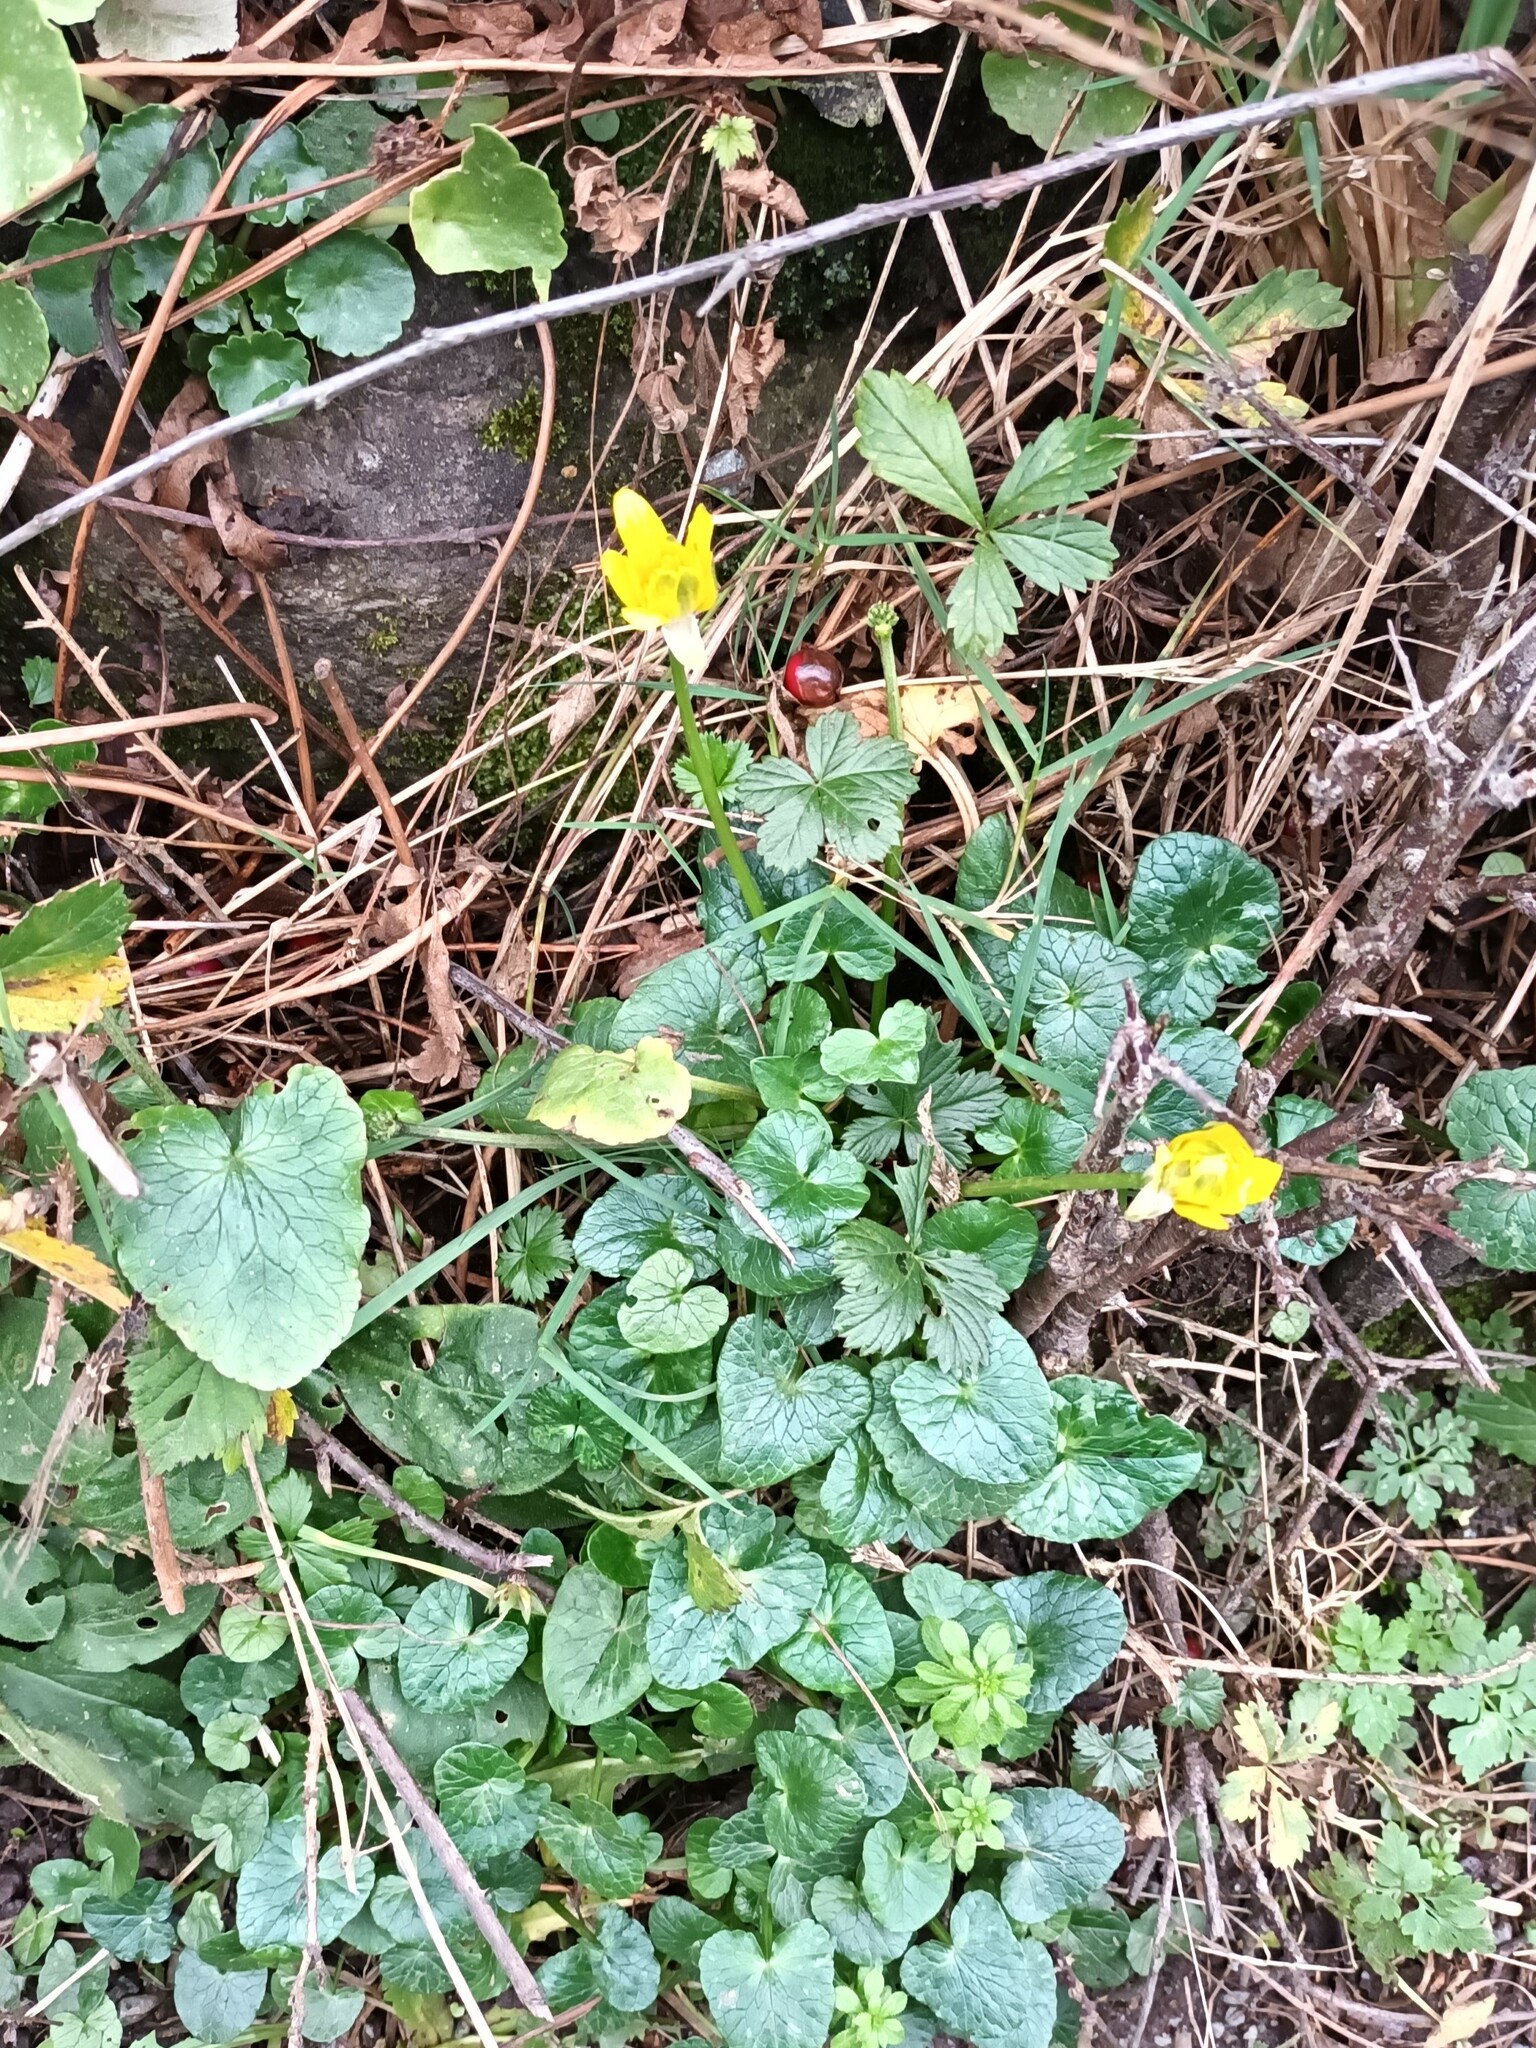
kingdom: Plantae
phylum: Tracheophyta
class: Magnoliopsida
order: Ranunculales
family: Ranunculaceae
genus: Ficaria
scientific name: Ficaria verna
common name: Lesser celandine
